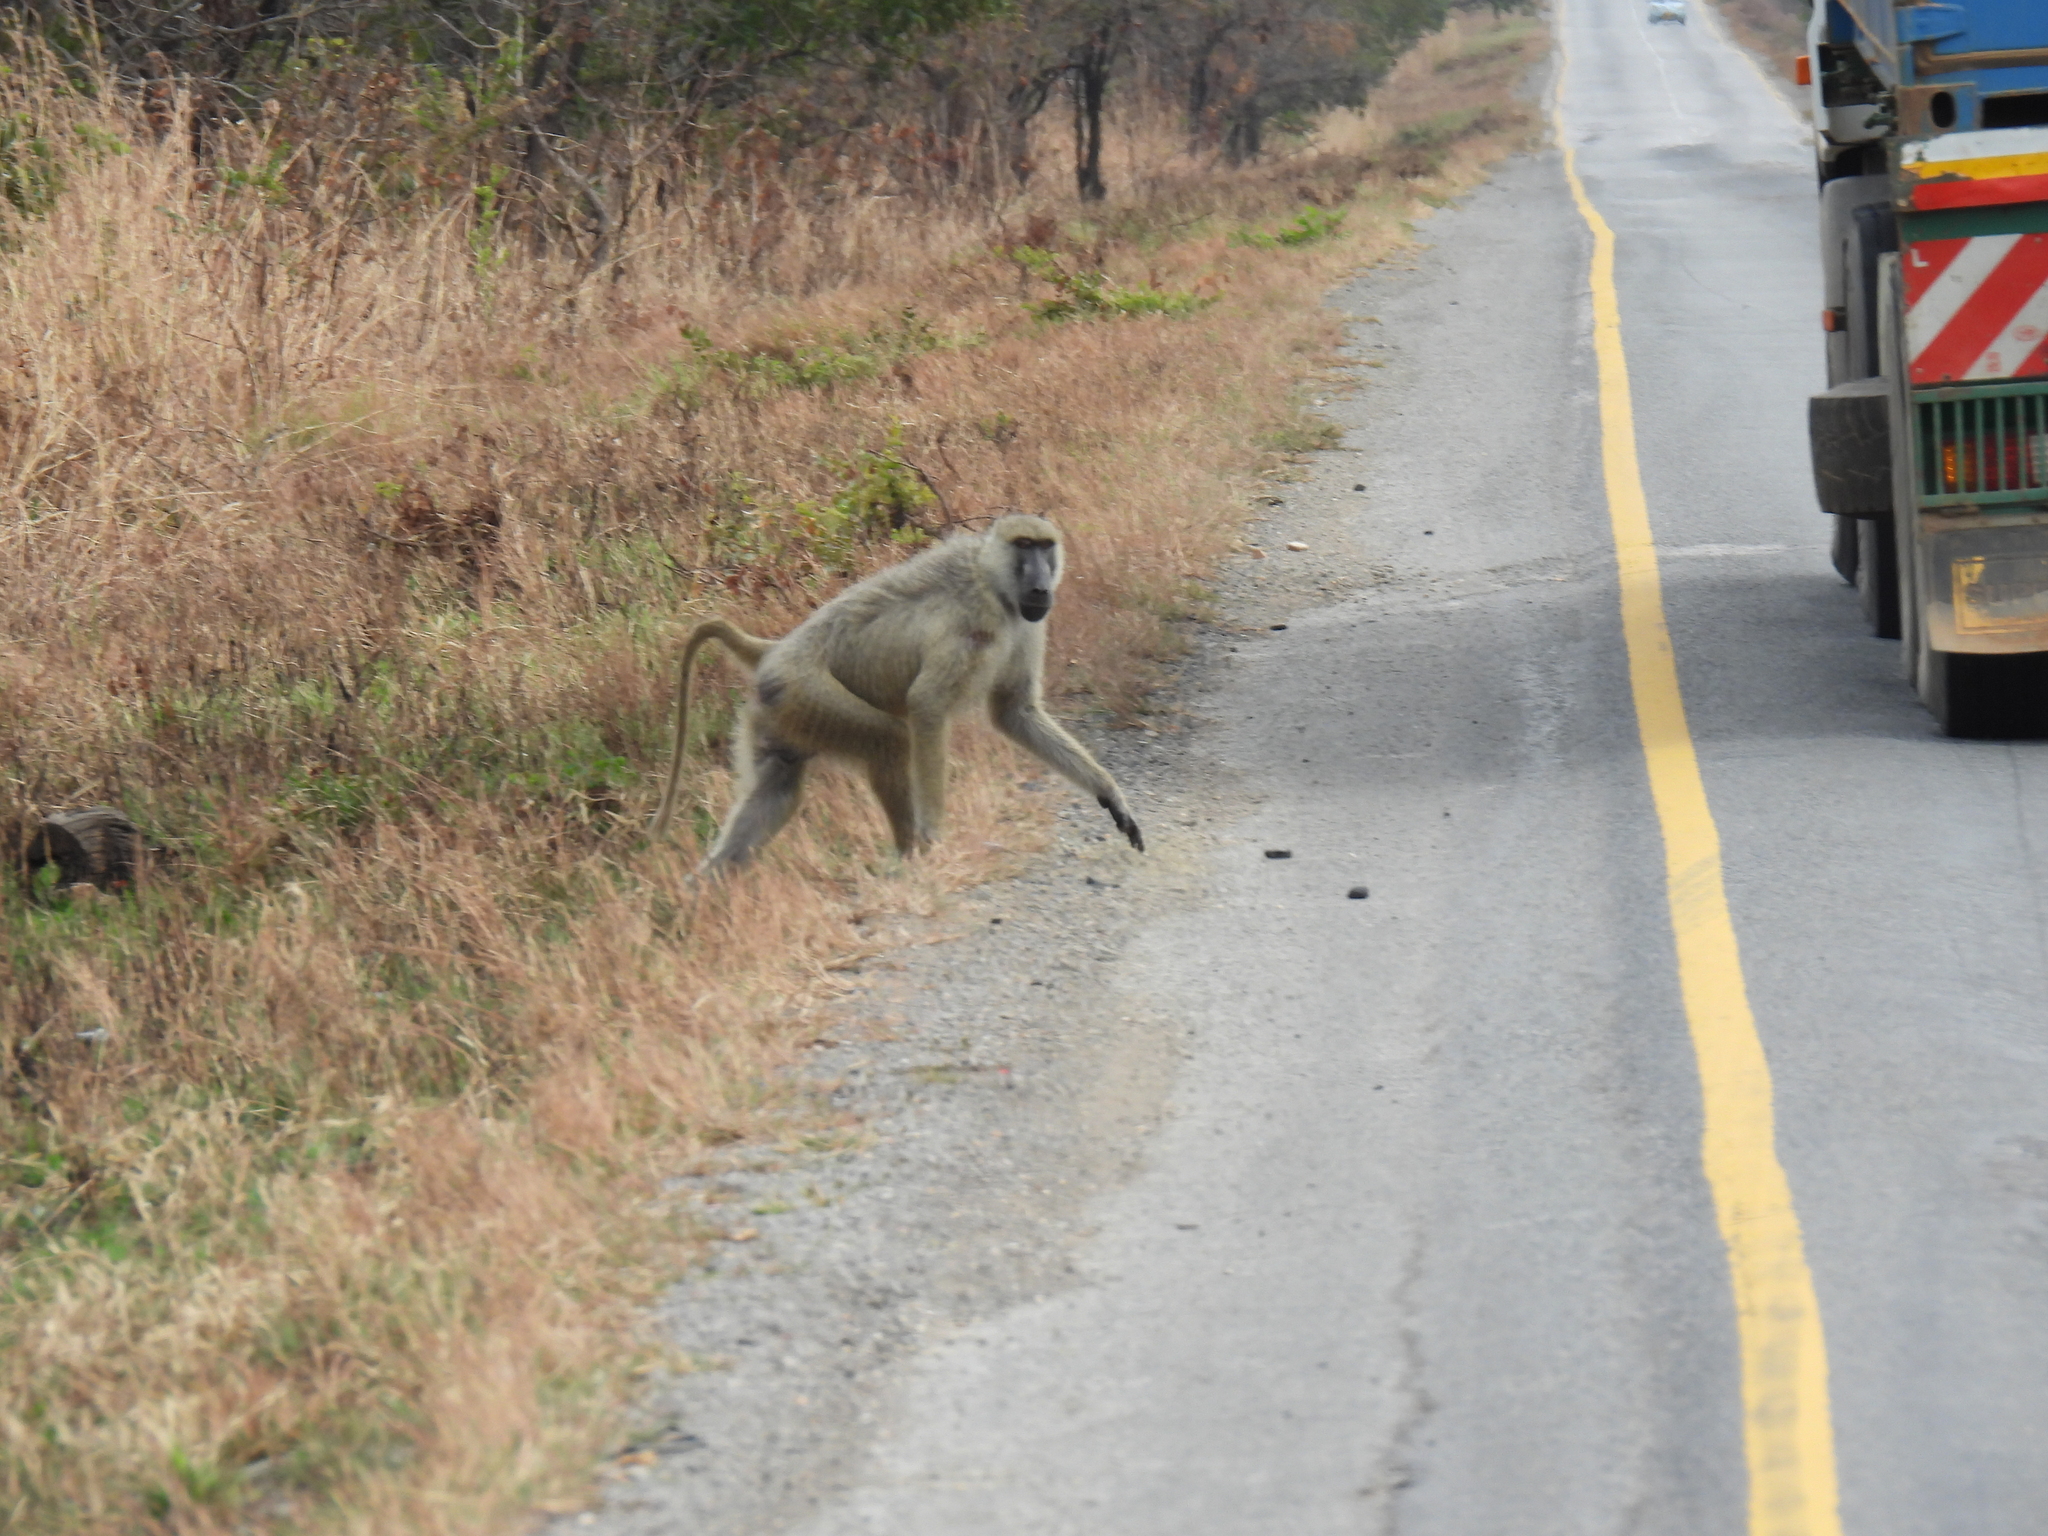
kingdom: Animalia
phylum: Chordata
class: Mammalia
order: Primates
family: Cercopithecidae
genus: Papio
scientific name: Papio cynocephalus
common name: Yellow baboon
